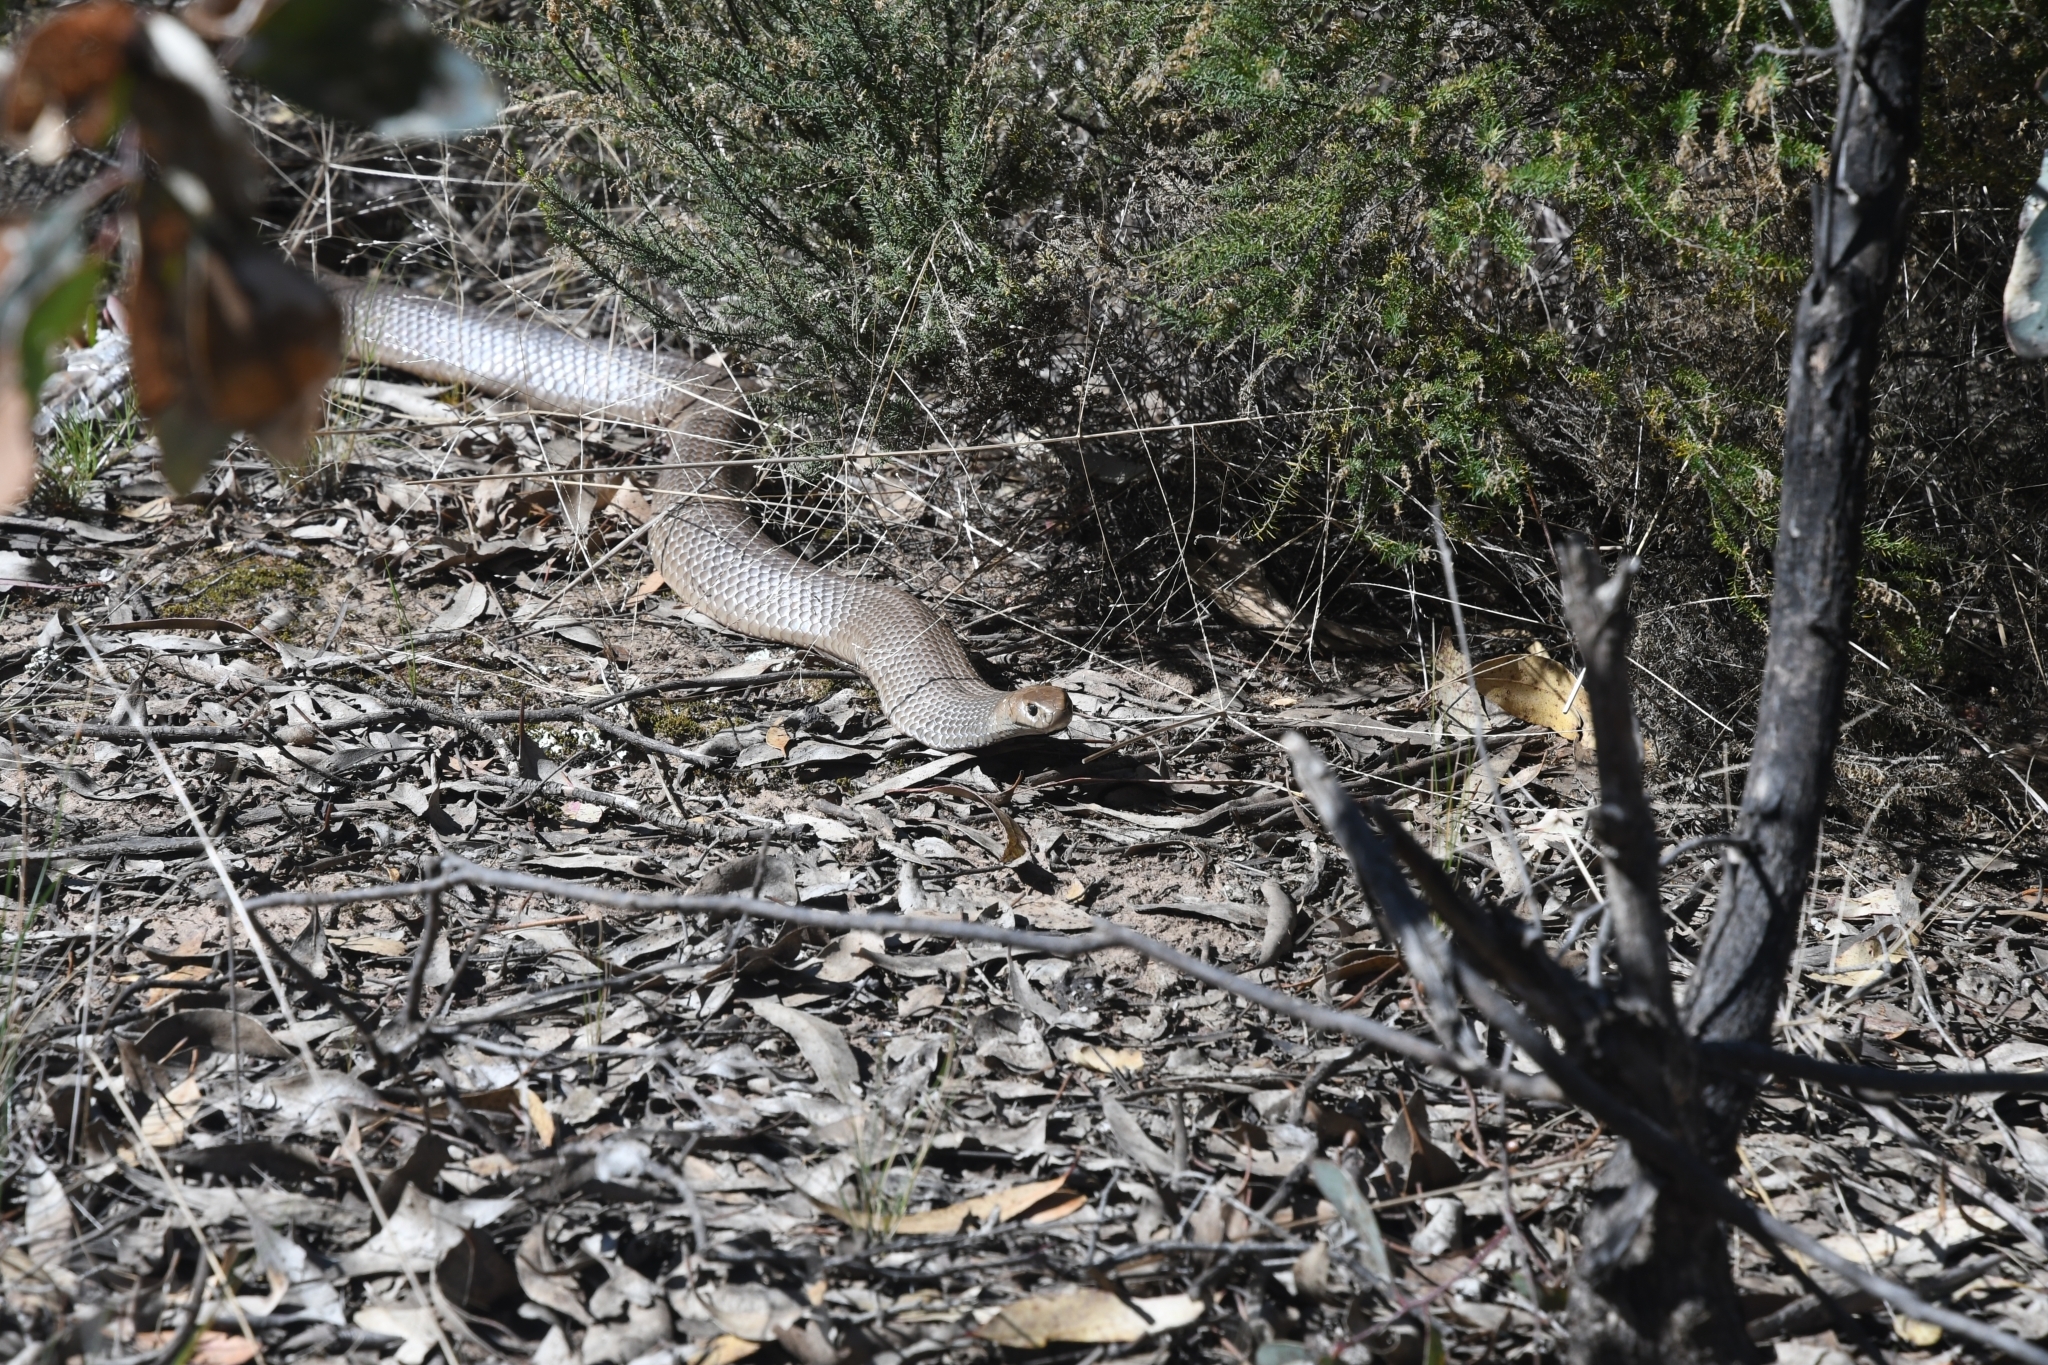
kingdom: Animalia
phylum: Chordata
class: Squamata
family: Elapidae
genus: Pseudonaja
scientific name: Pseudonaja textilis
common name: Eastern brown snake
